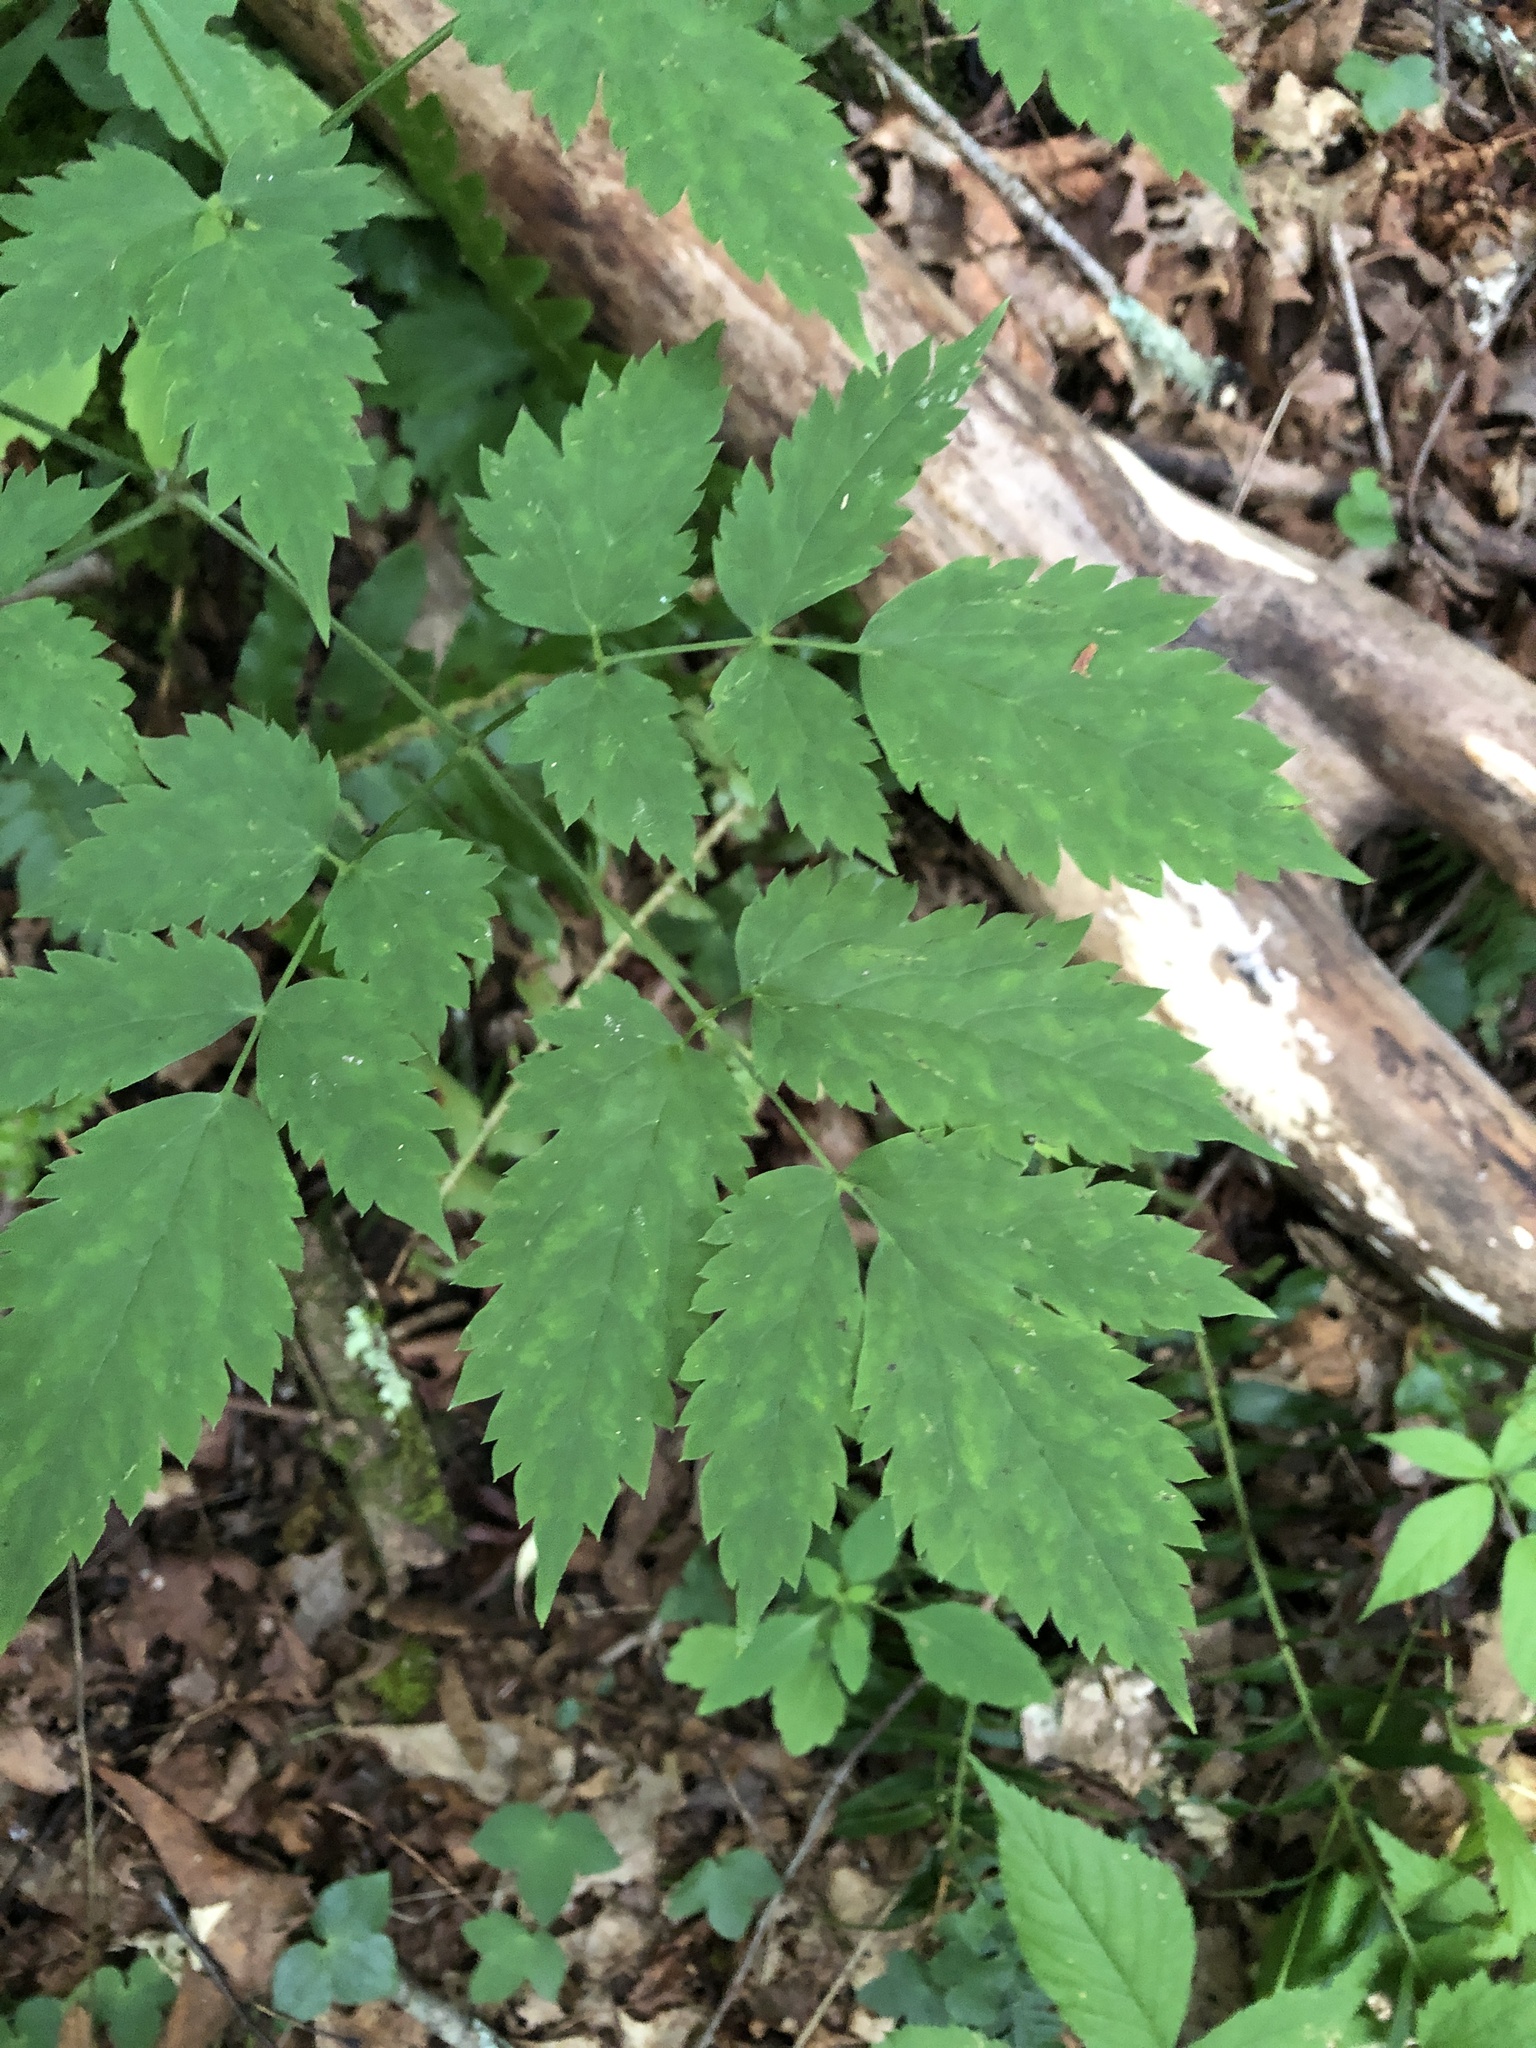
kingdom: Plantae
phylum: Tracheophyta
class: Magnoliopsida
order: Ranunculales
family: Ranunculaceae
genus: Actaea
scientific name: Actaea pachypoda
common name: Doll's-eyes
